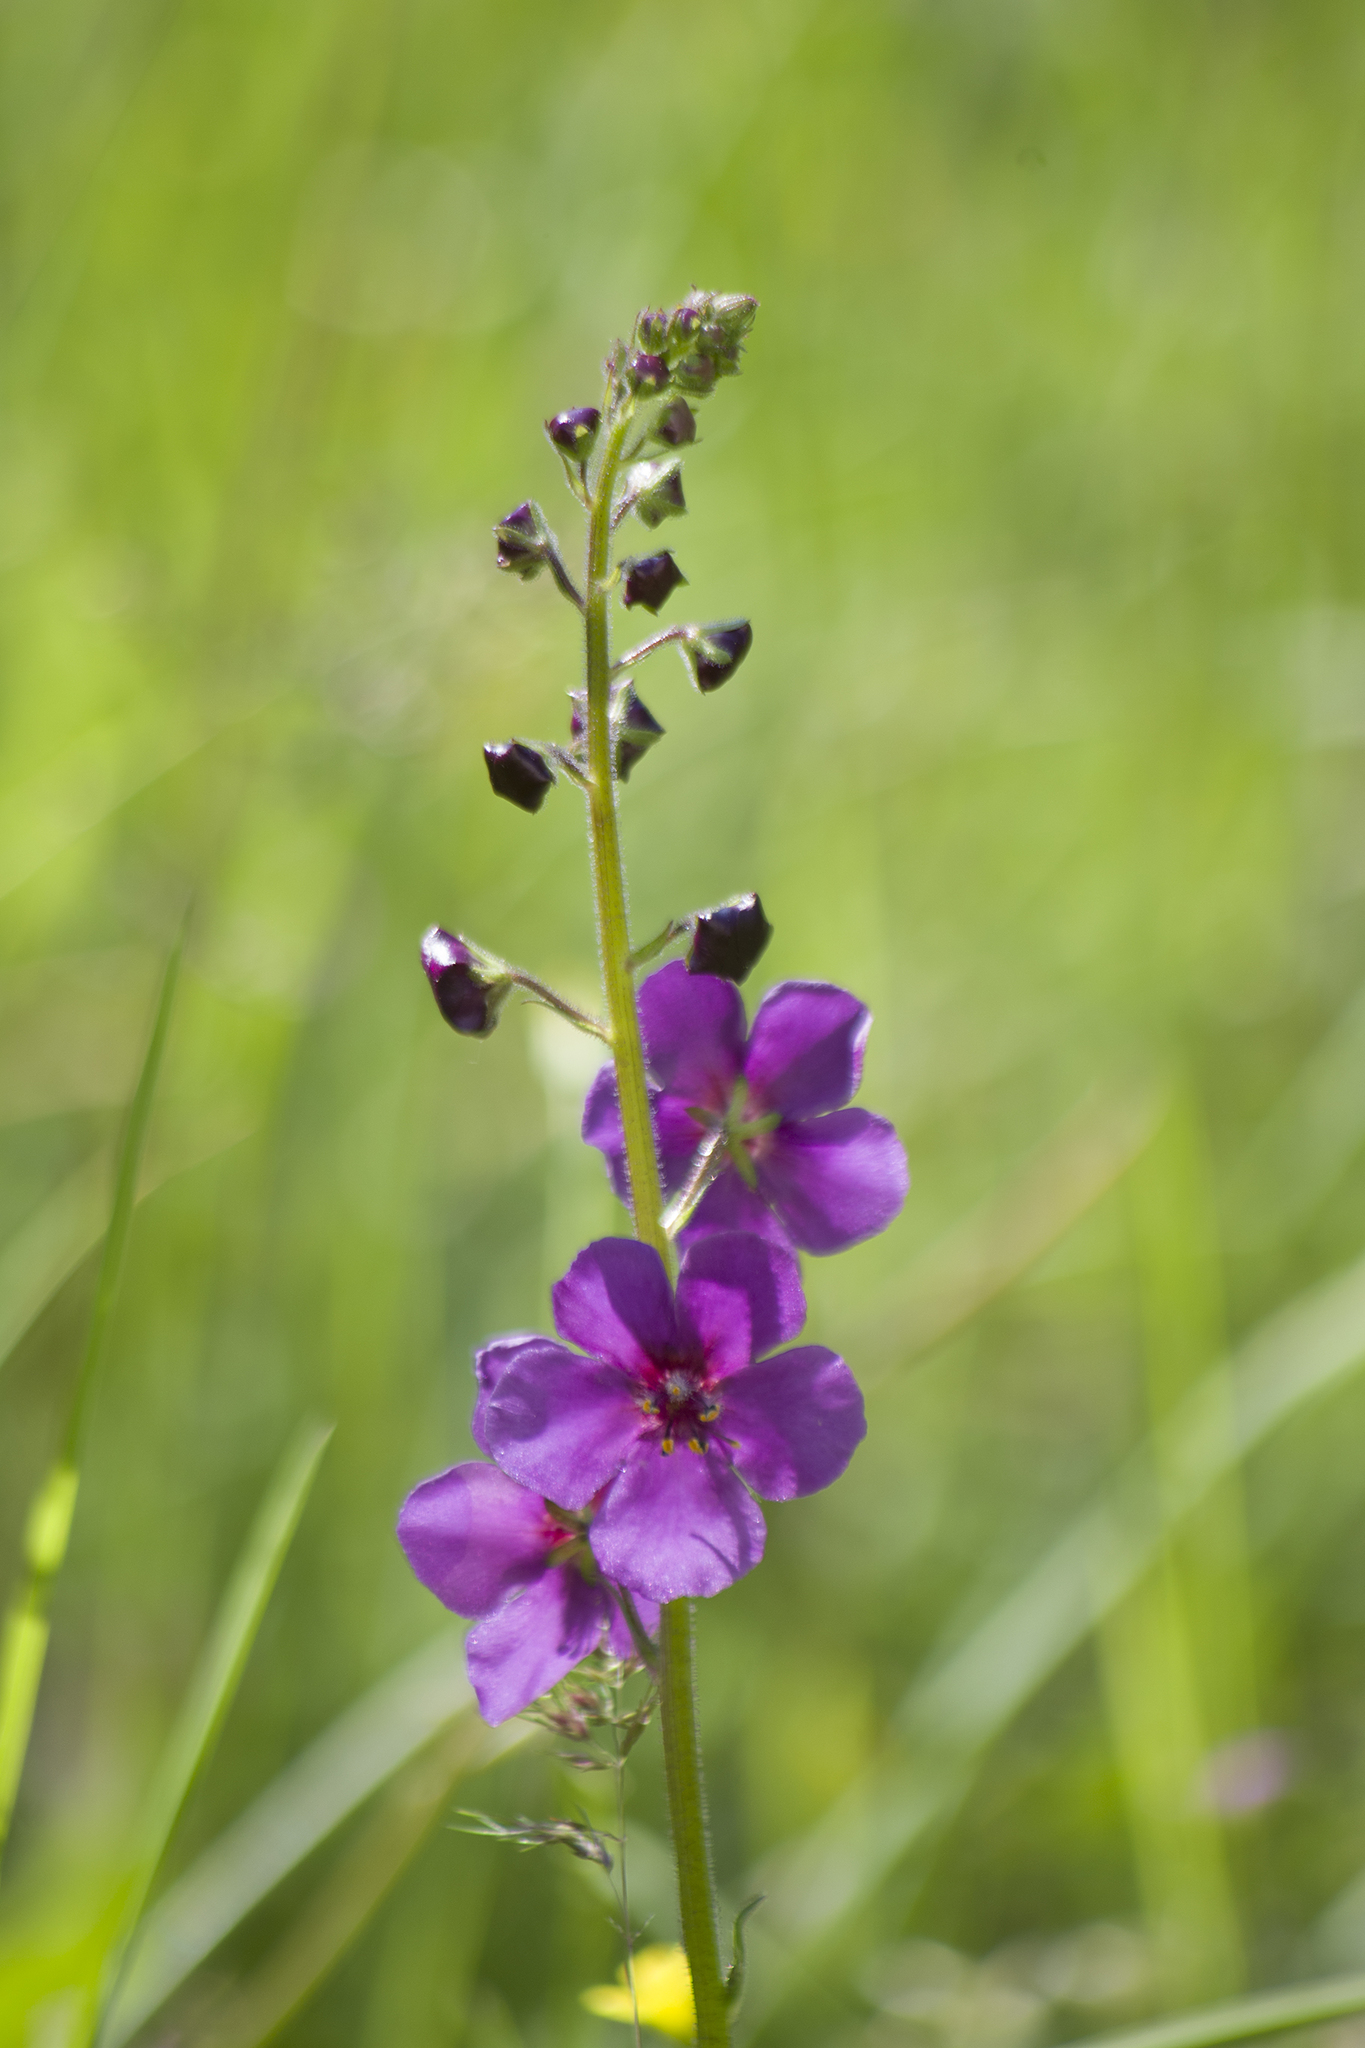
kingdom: Plantae
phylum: Tracheophyta
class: Magnoliopsida
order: Lamiales
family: Scrophulariaceae
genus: Verbascum
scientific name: Verbascum phoeniceum
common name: Purple mullein
